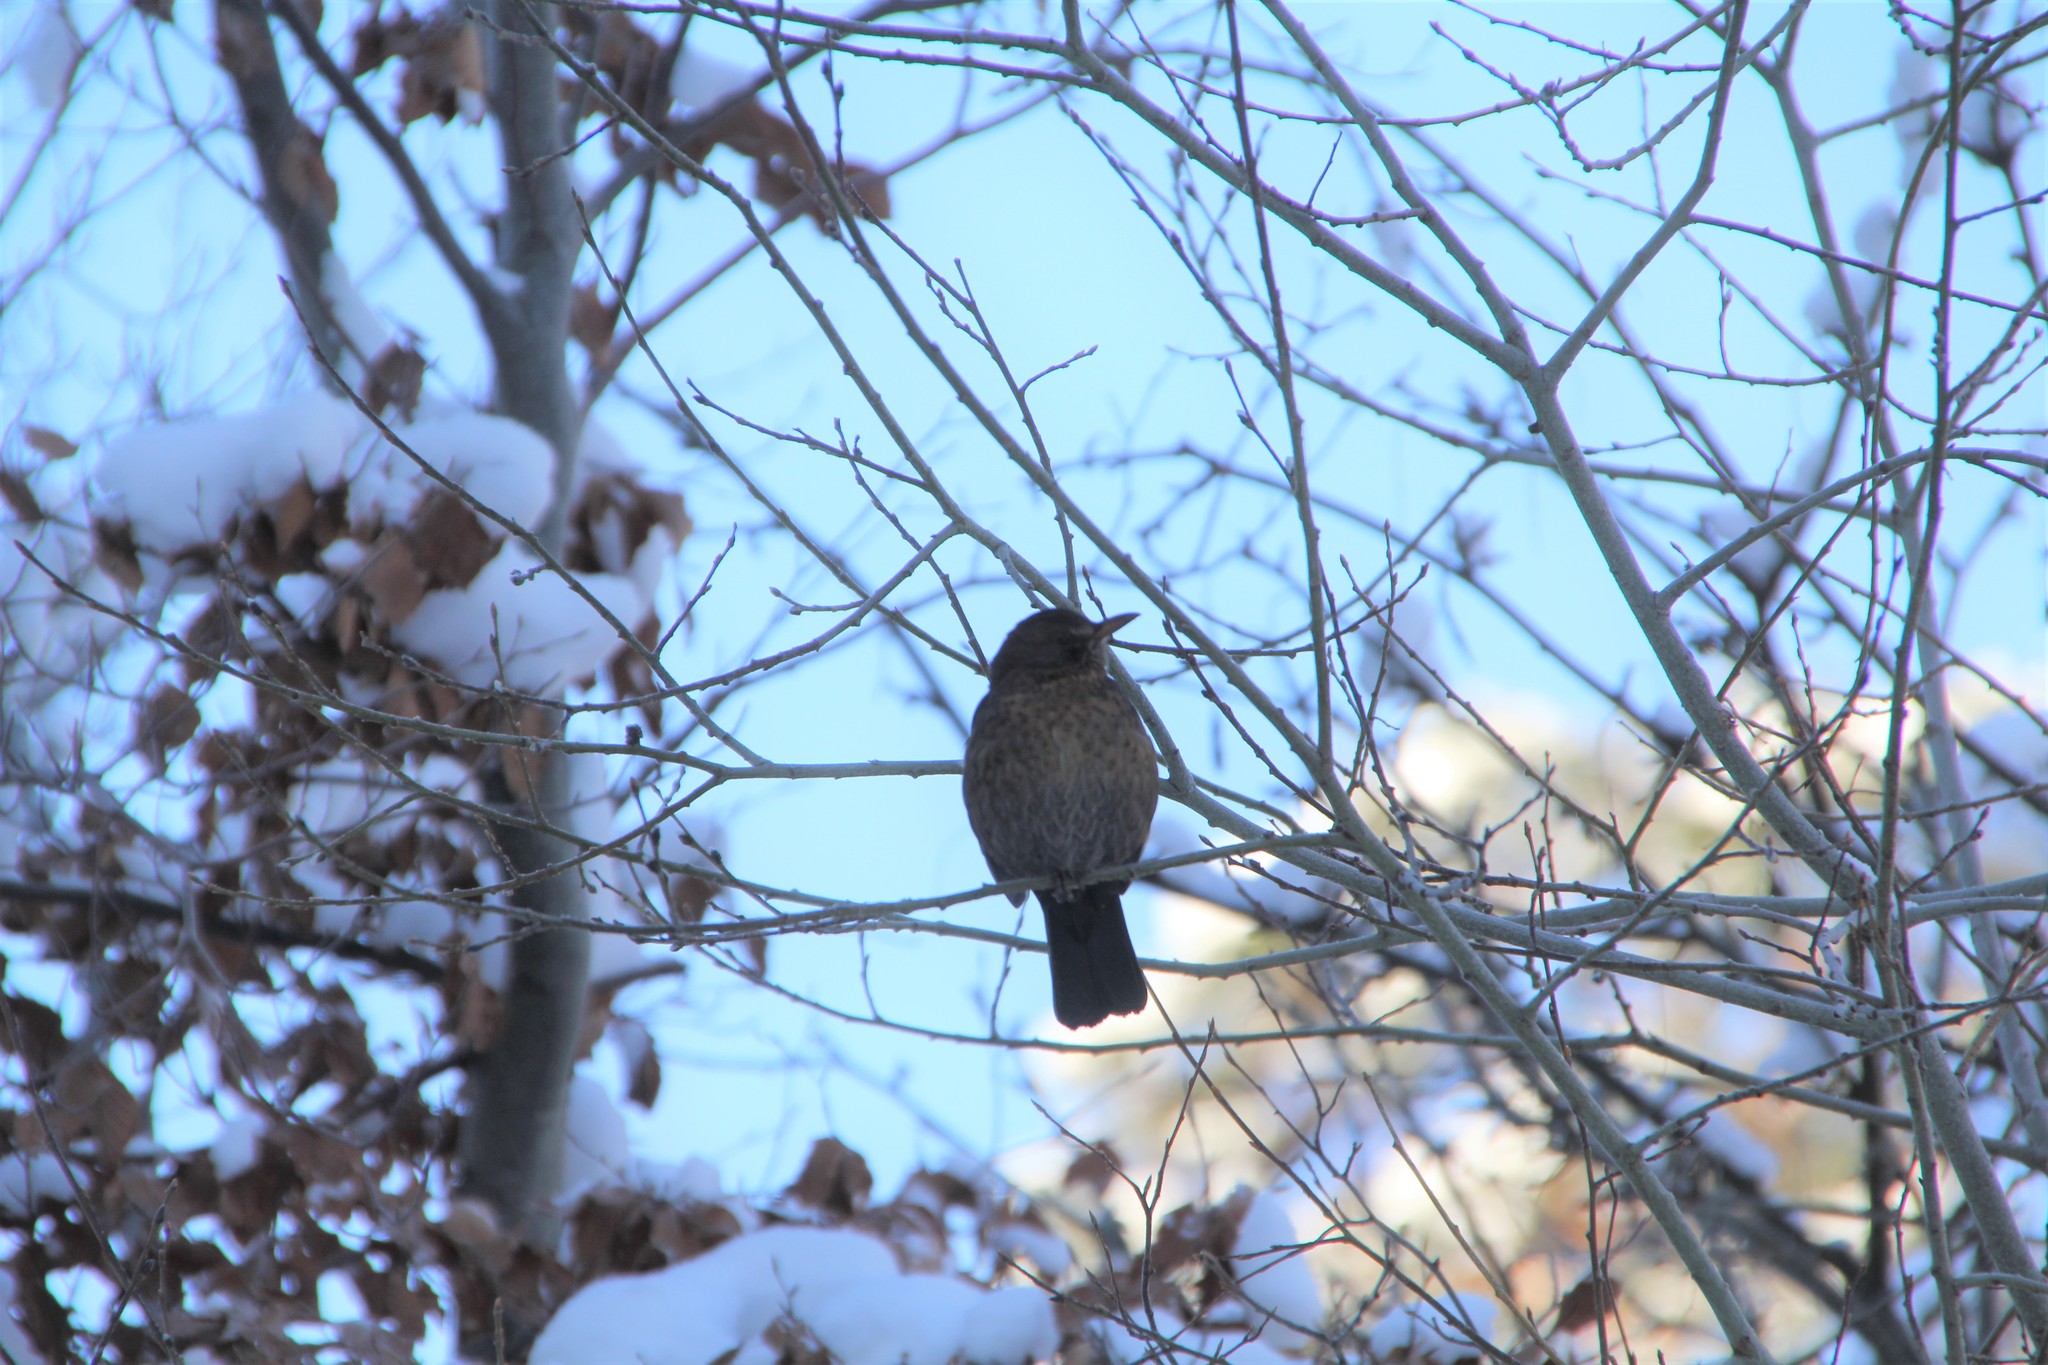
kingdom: Animalia
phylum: Chordata
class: Aves
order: Passeriformes
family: Turdidae
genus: Turdus
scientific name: Turdus merula
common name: Common blackbird
